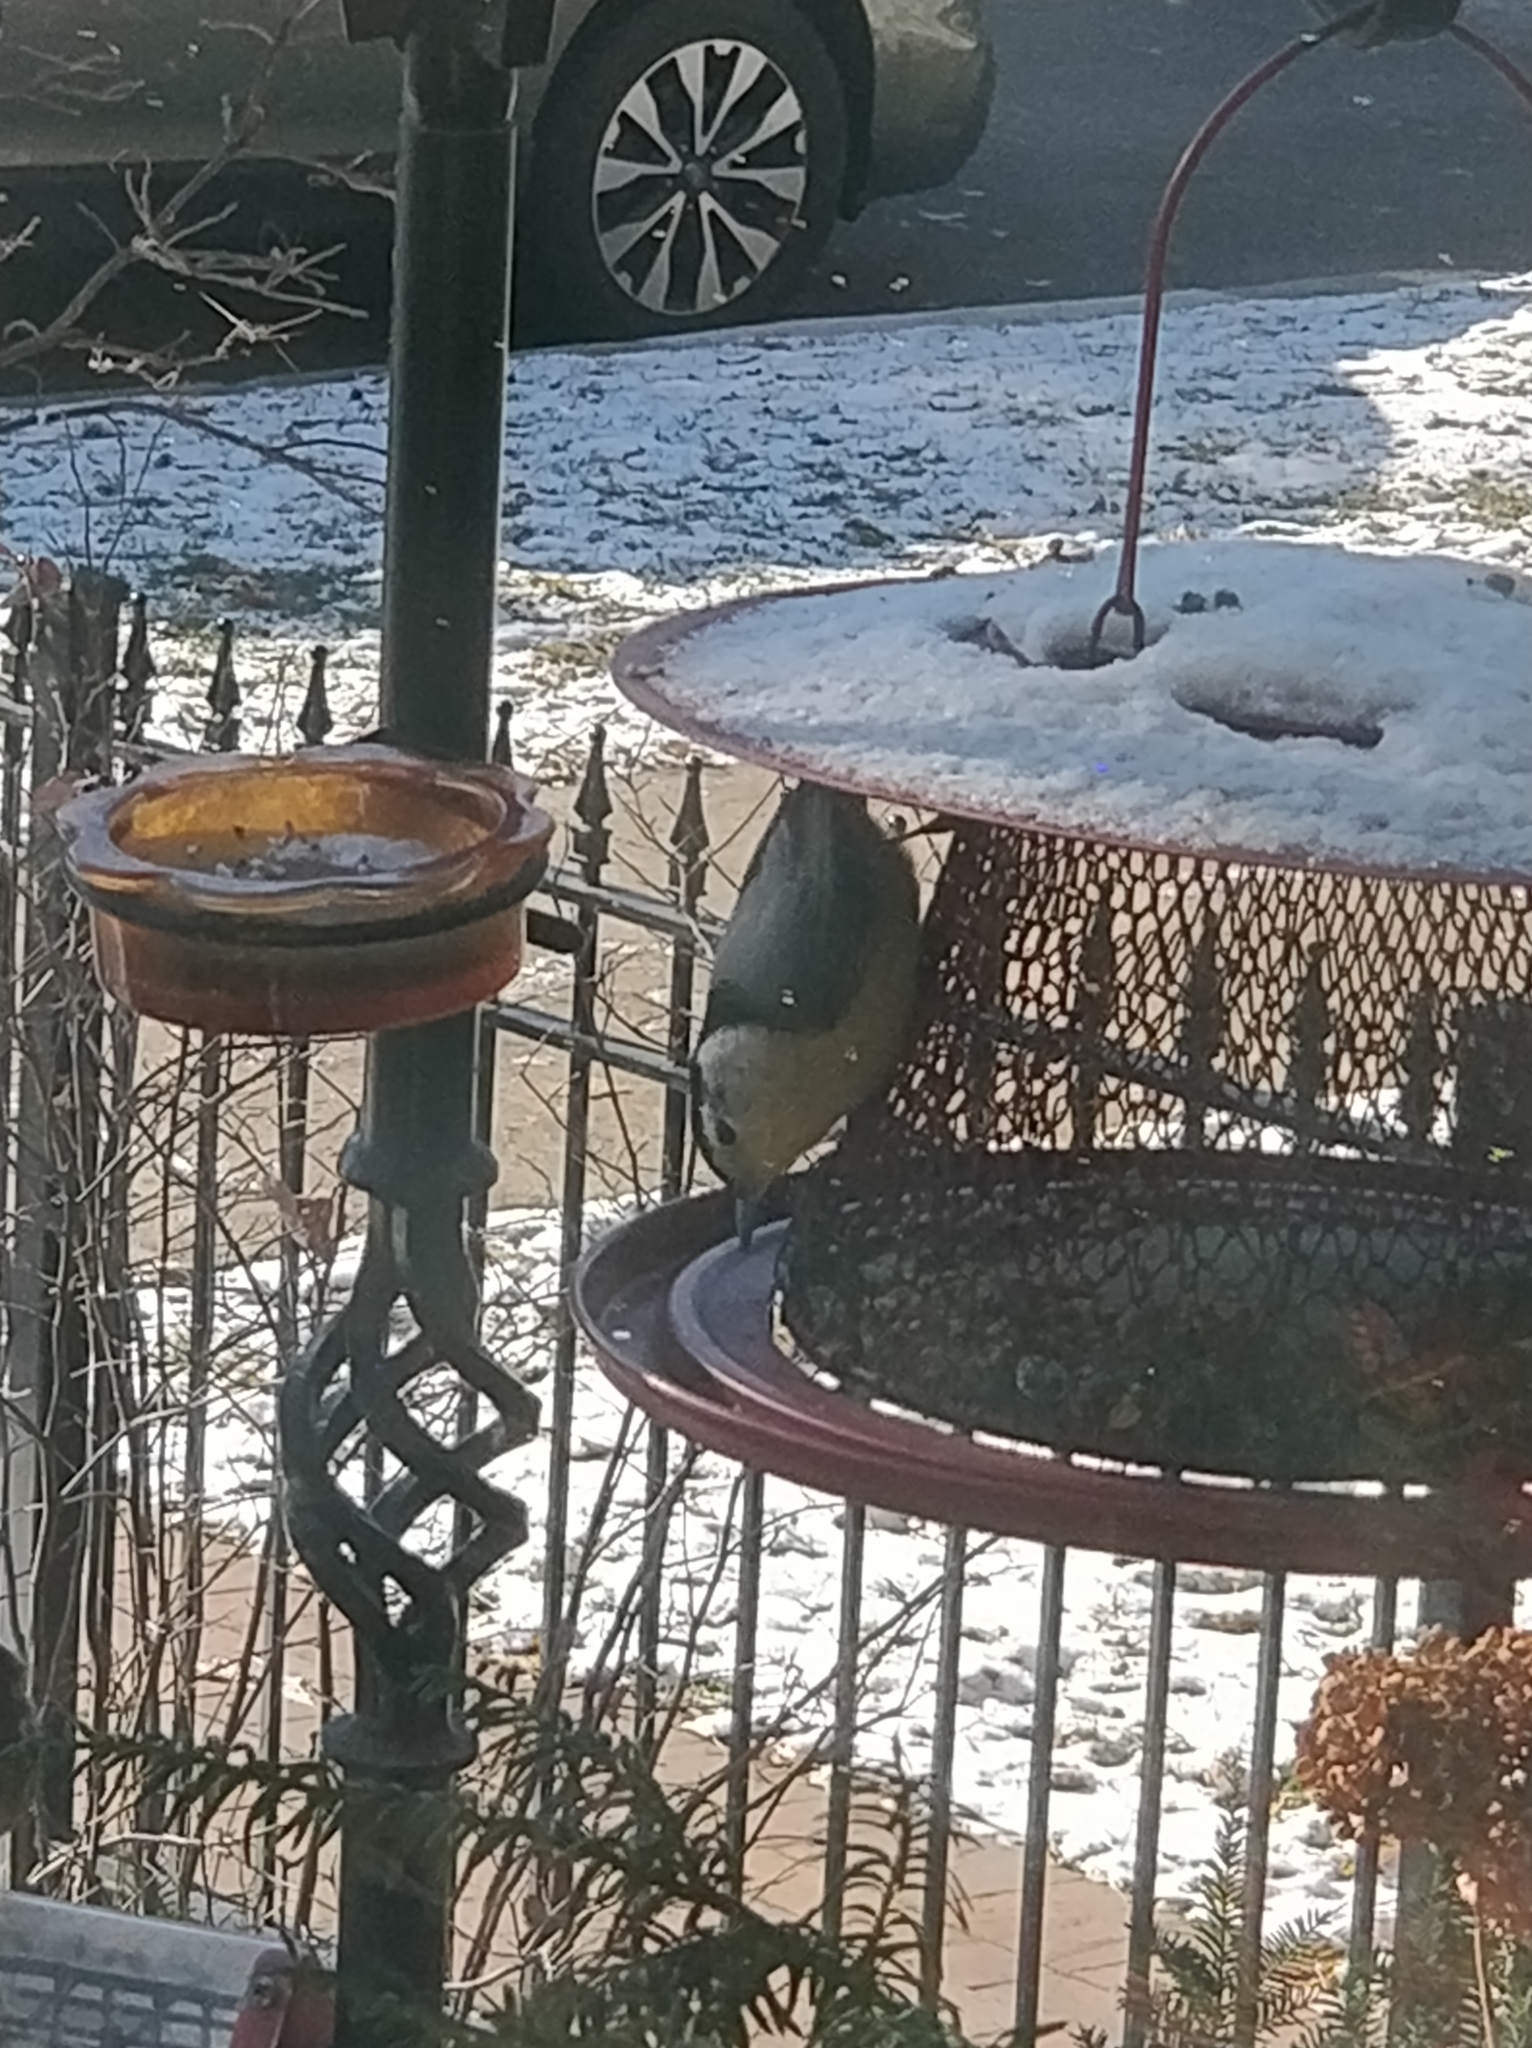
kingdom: Animalia
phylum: Chordata
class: Aves
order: Passeriformes
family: Sittidae
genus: Sitta
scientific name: Sitta carolinensis
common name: White-breasted nuthatch
